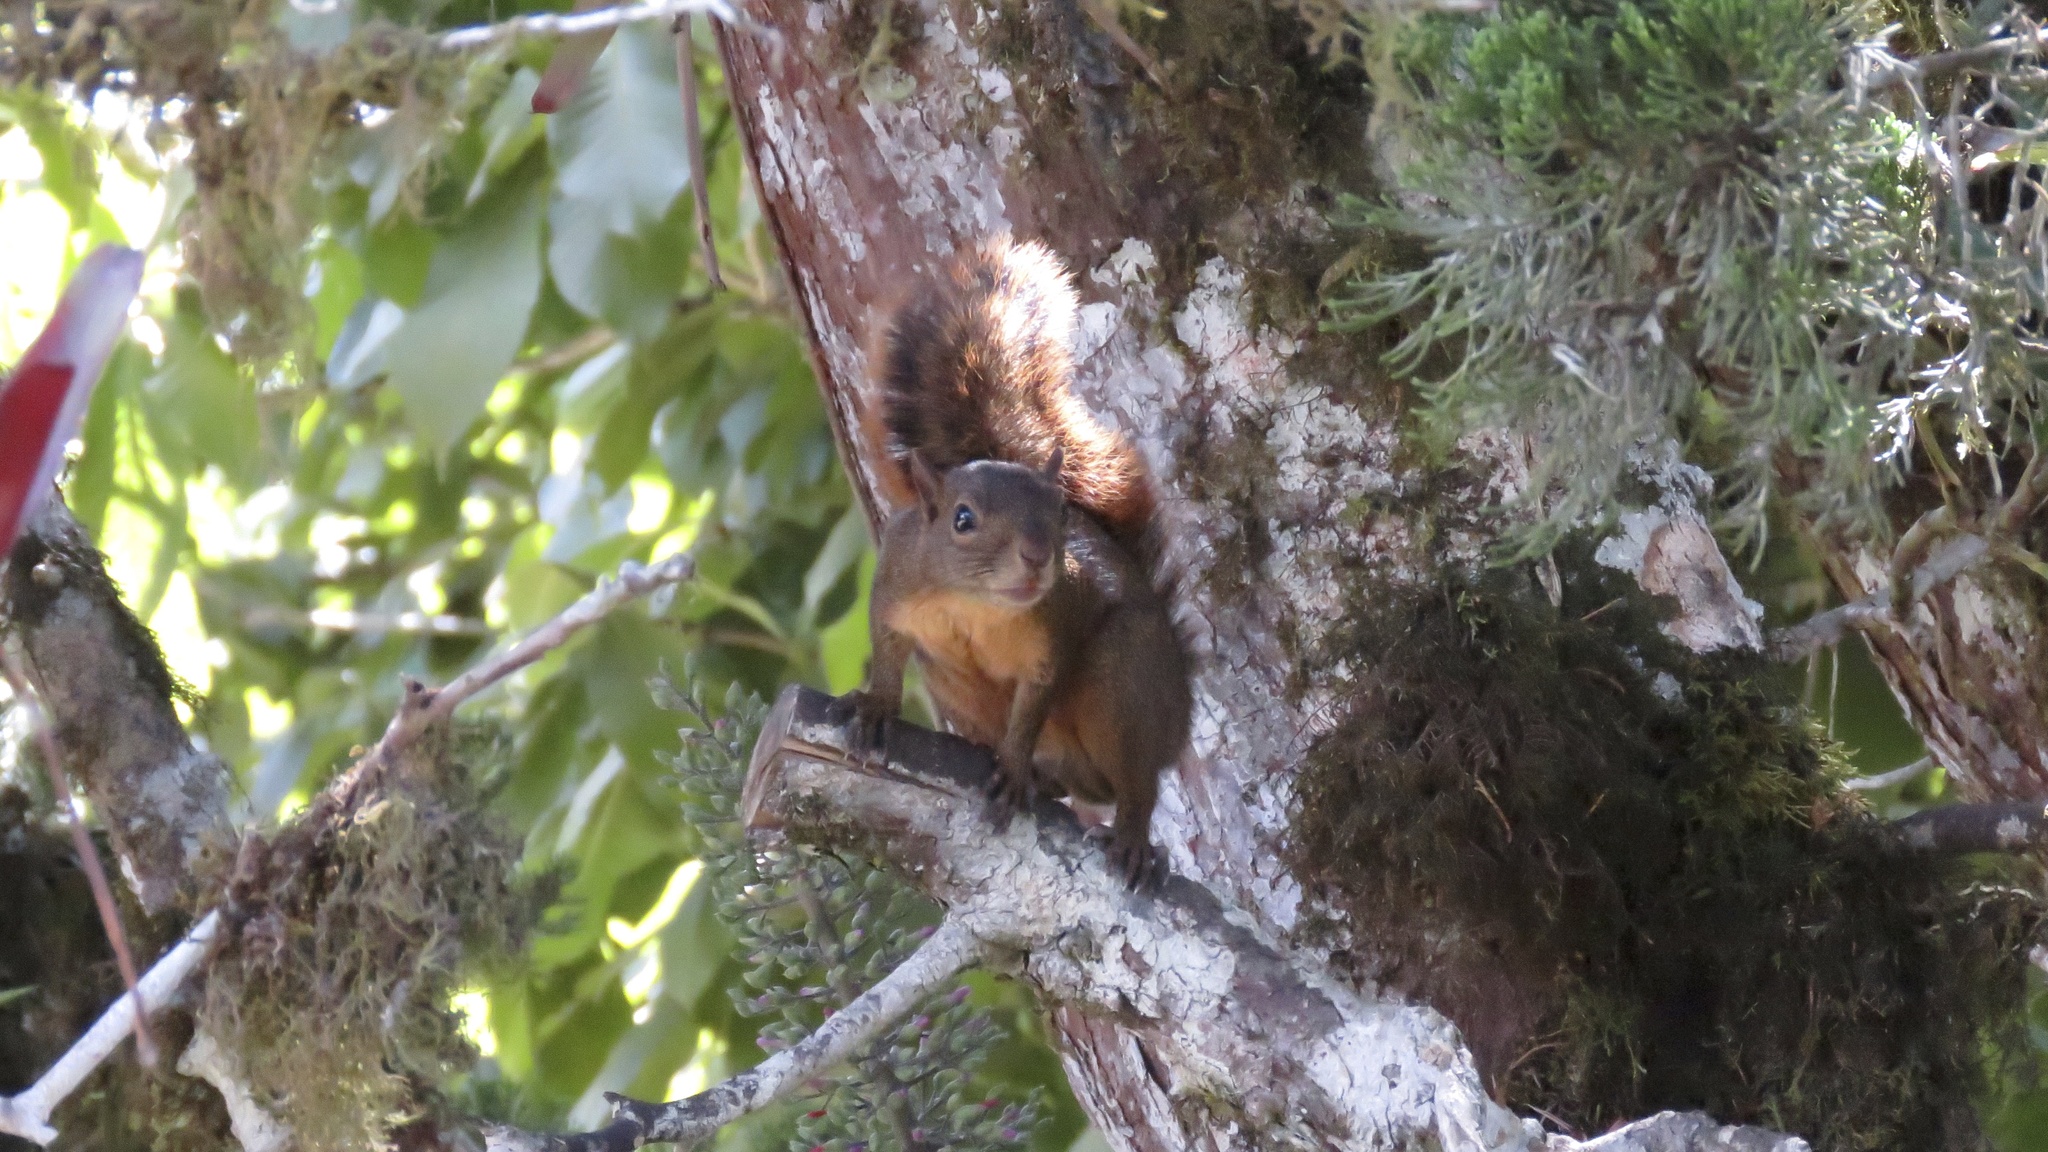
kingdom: Animalia
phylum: Chordata
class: Mammalia
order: Rodentia
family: Sciuridae
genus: Sciurus
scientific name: Sciurus granatensis
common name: Red-tailed squirrel
